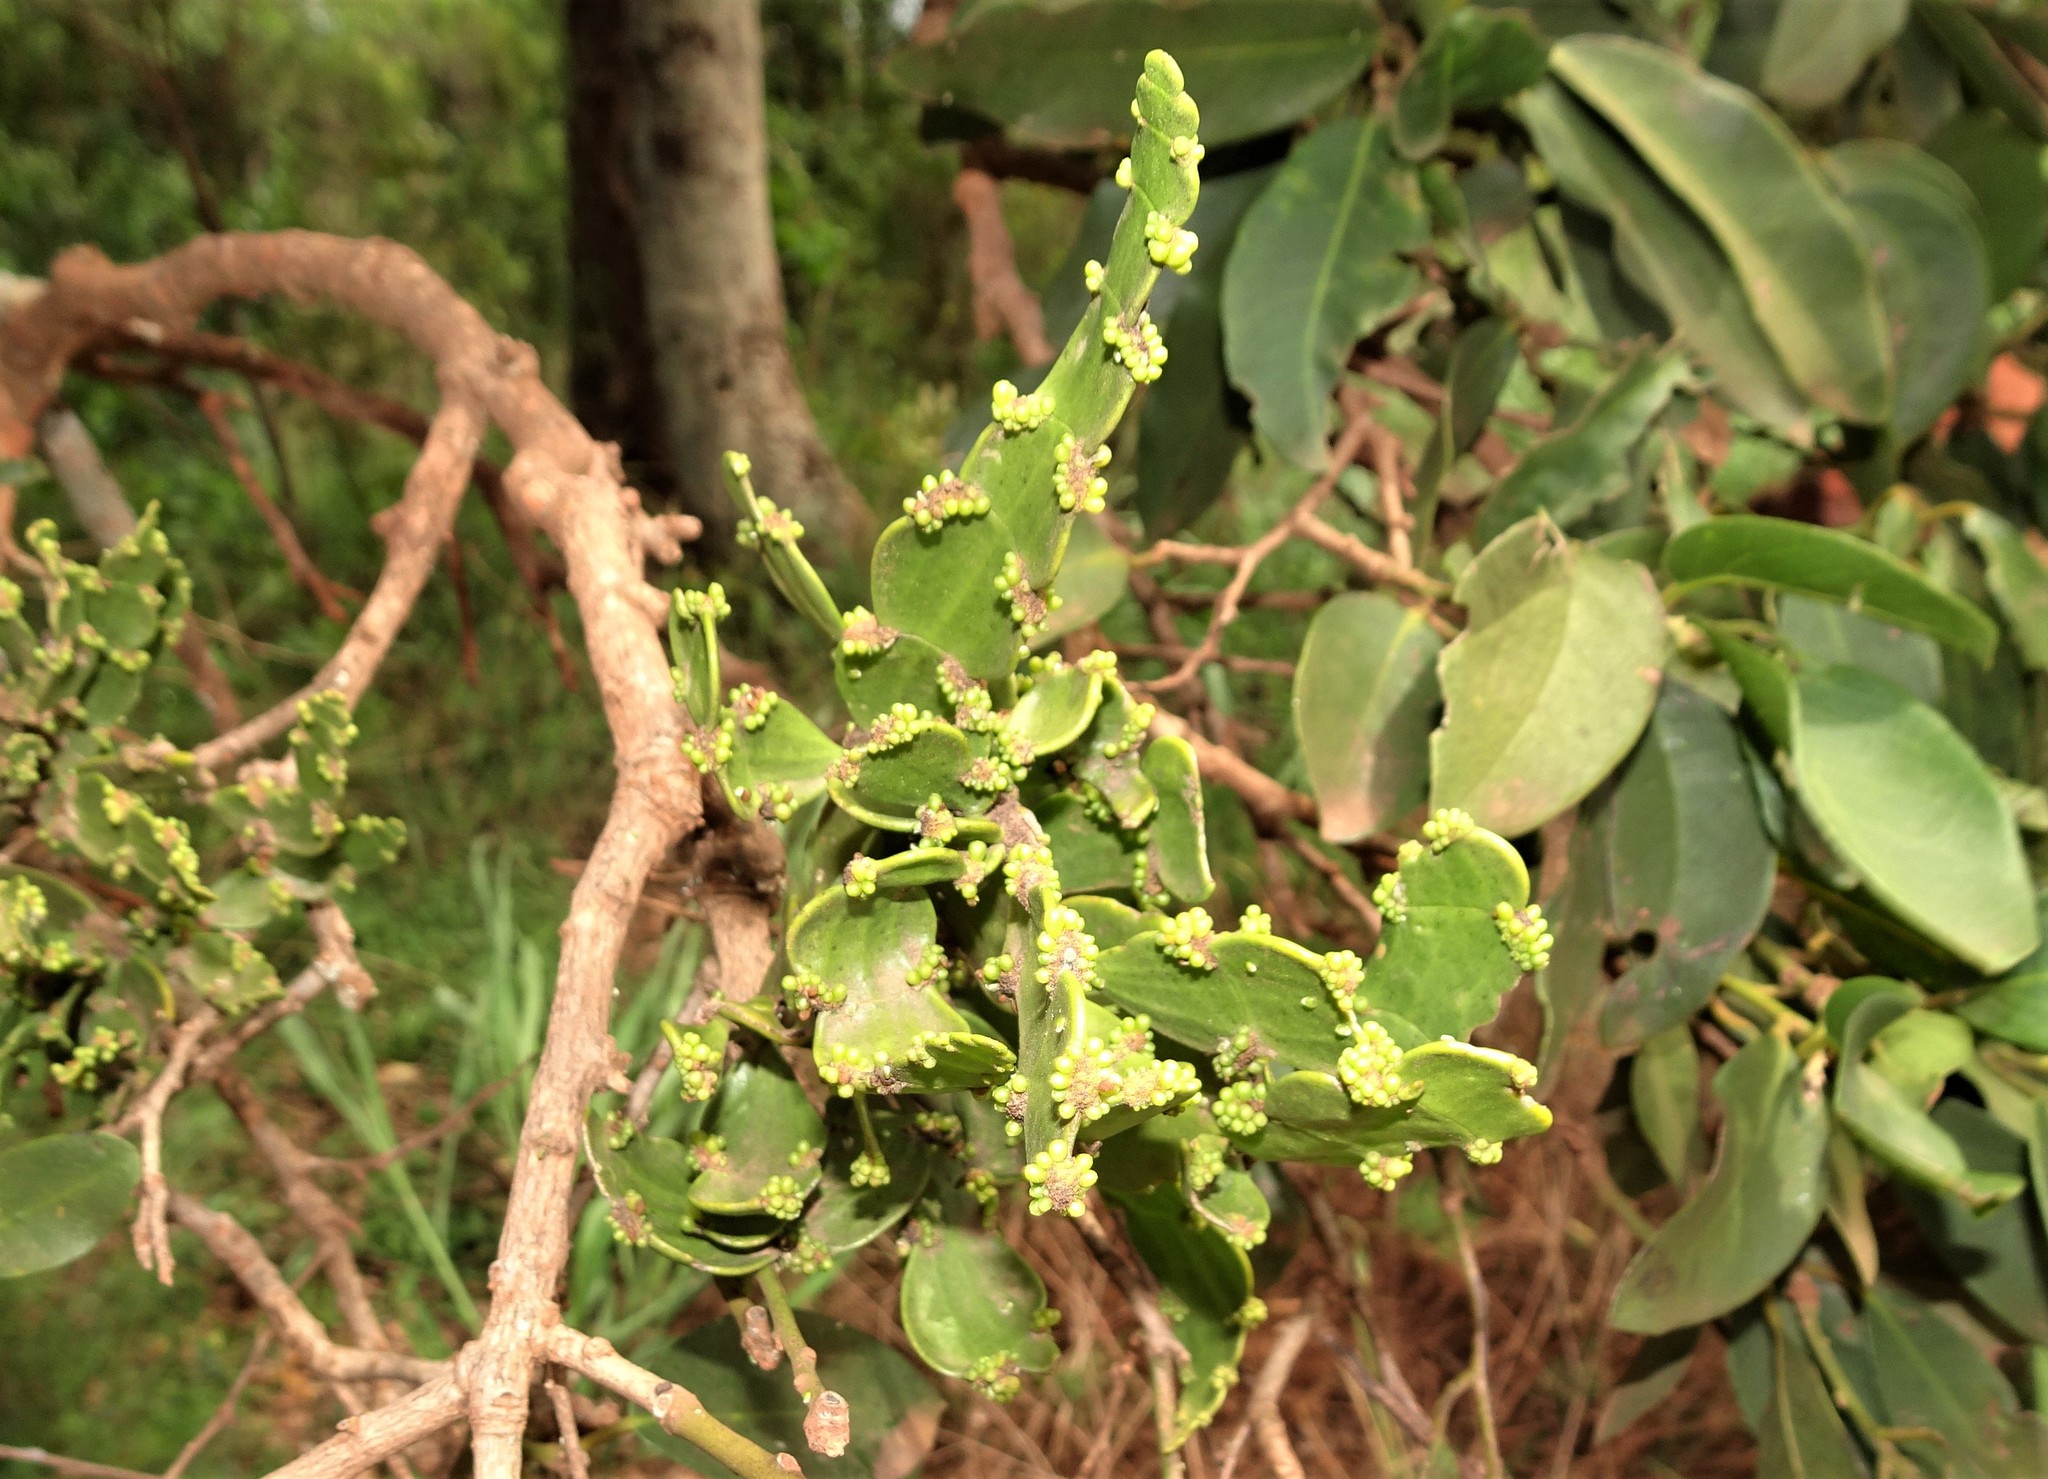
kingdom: Plantae
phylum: Tracheophyta
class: Magnoliopsida
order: Santalales
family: Viscaceae
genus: Korthalsella
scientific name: Korthalsella breviarticulata
